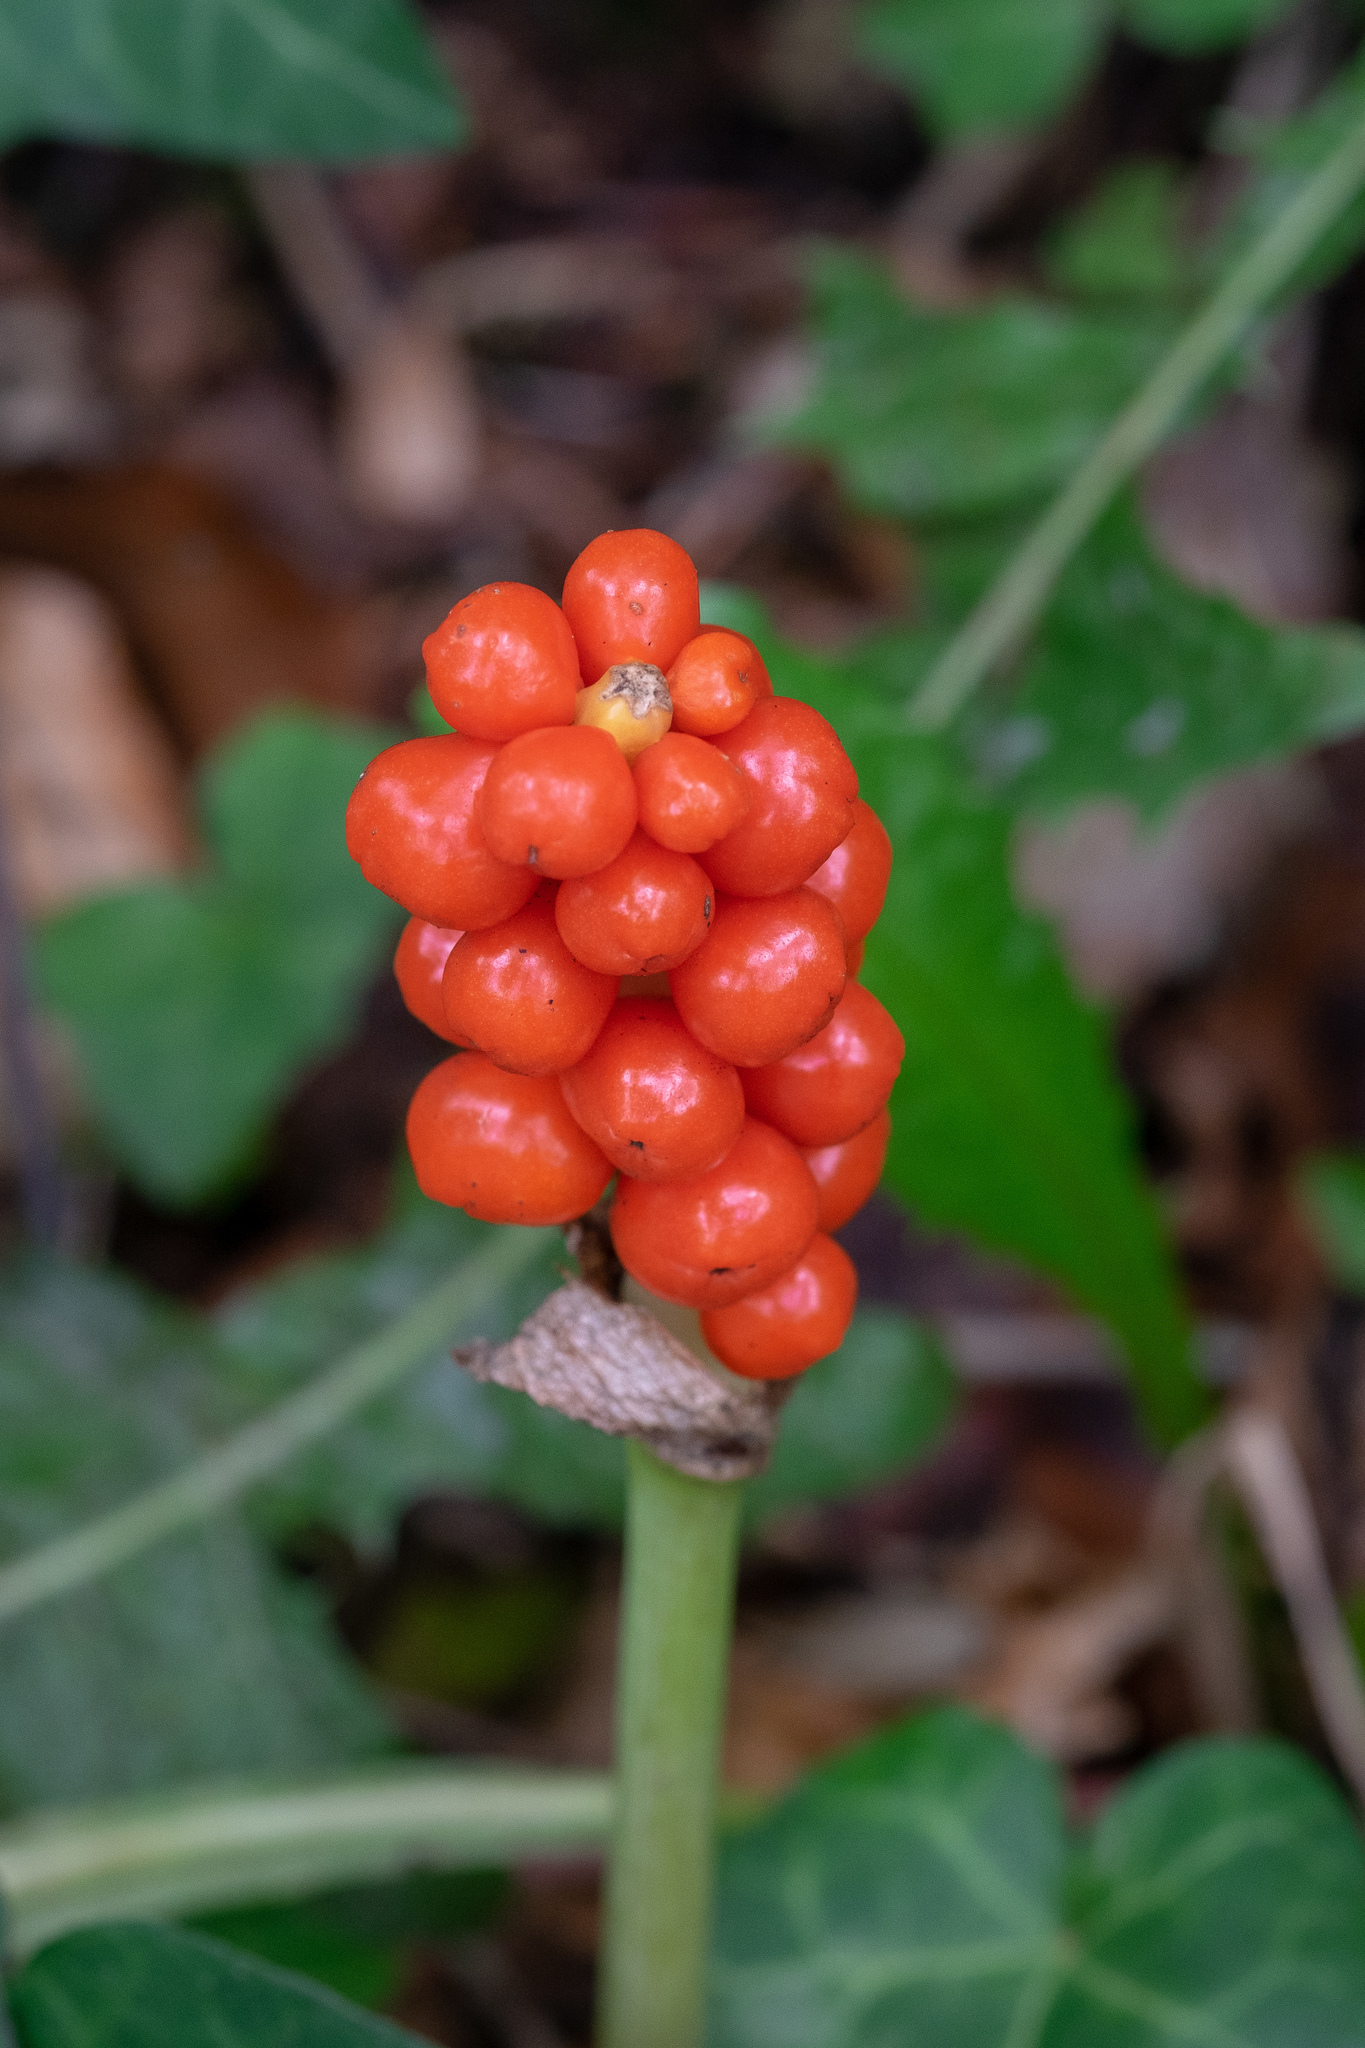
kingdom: Plantae
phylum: Tracheophyta
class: Liliopsida
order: Alismatales
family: Araceae
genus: Arum
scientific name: Arum maculatum
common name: Lords-and-ladies
